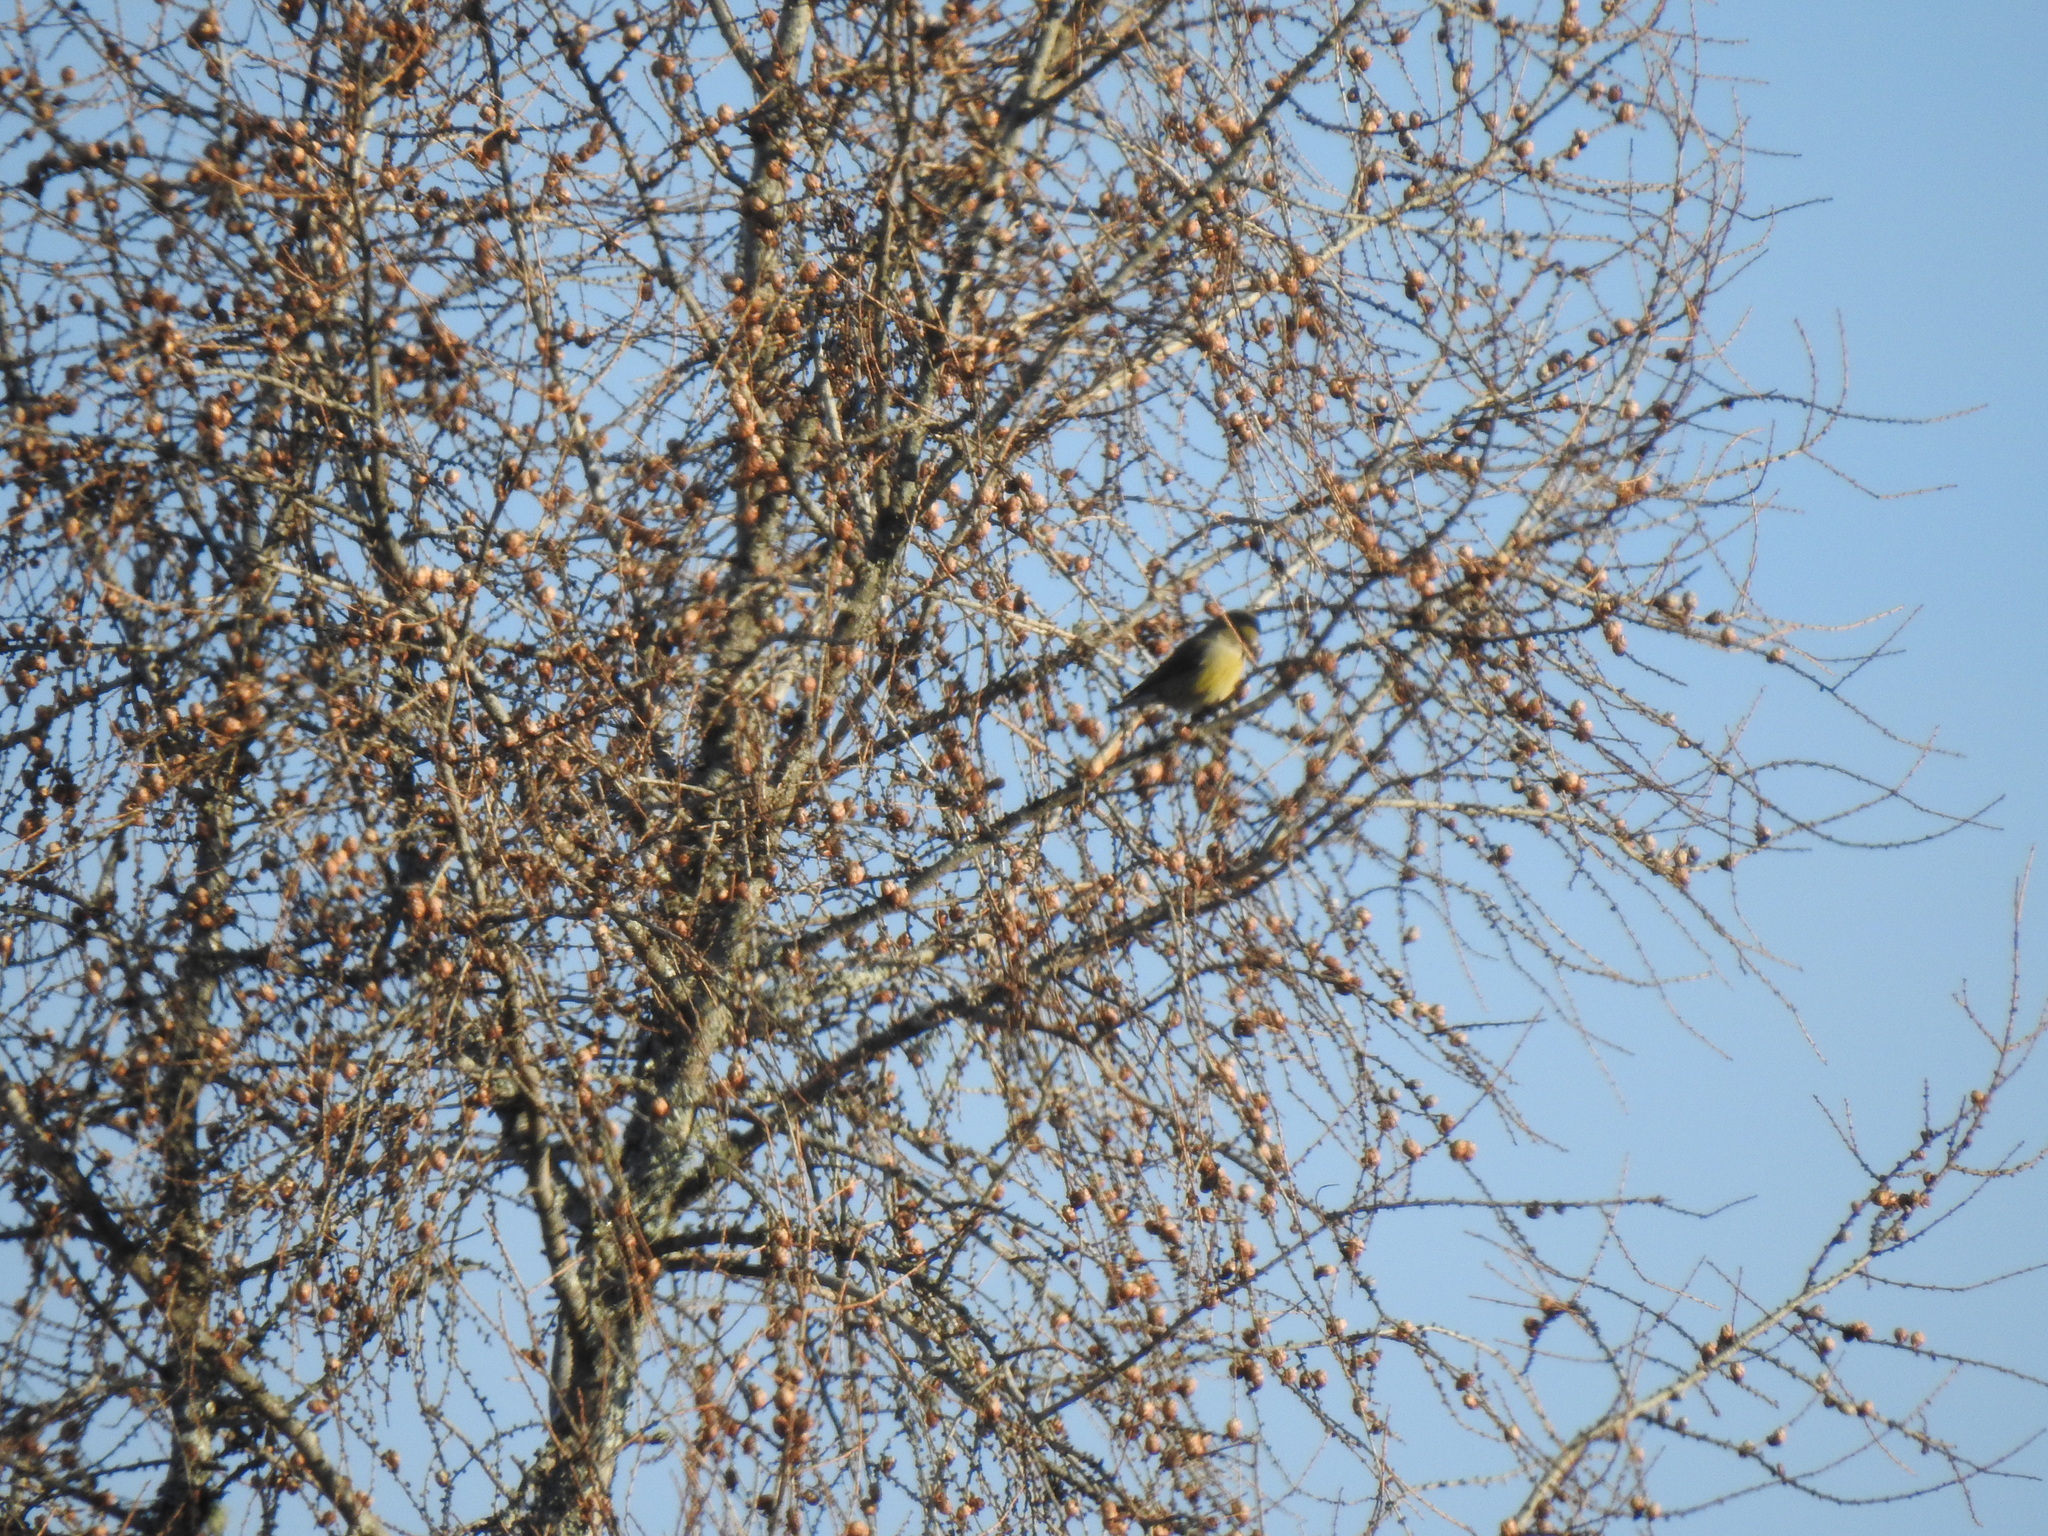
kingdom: Animalia
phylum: Chordata
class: Aves
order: Passeriformes
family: Fringillidae
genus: Loxia
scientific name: Loxia curvirostra
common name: Red crossbill
